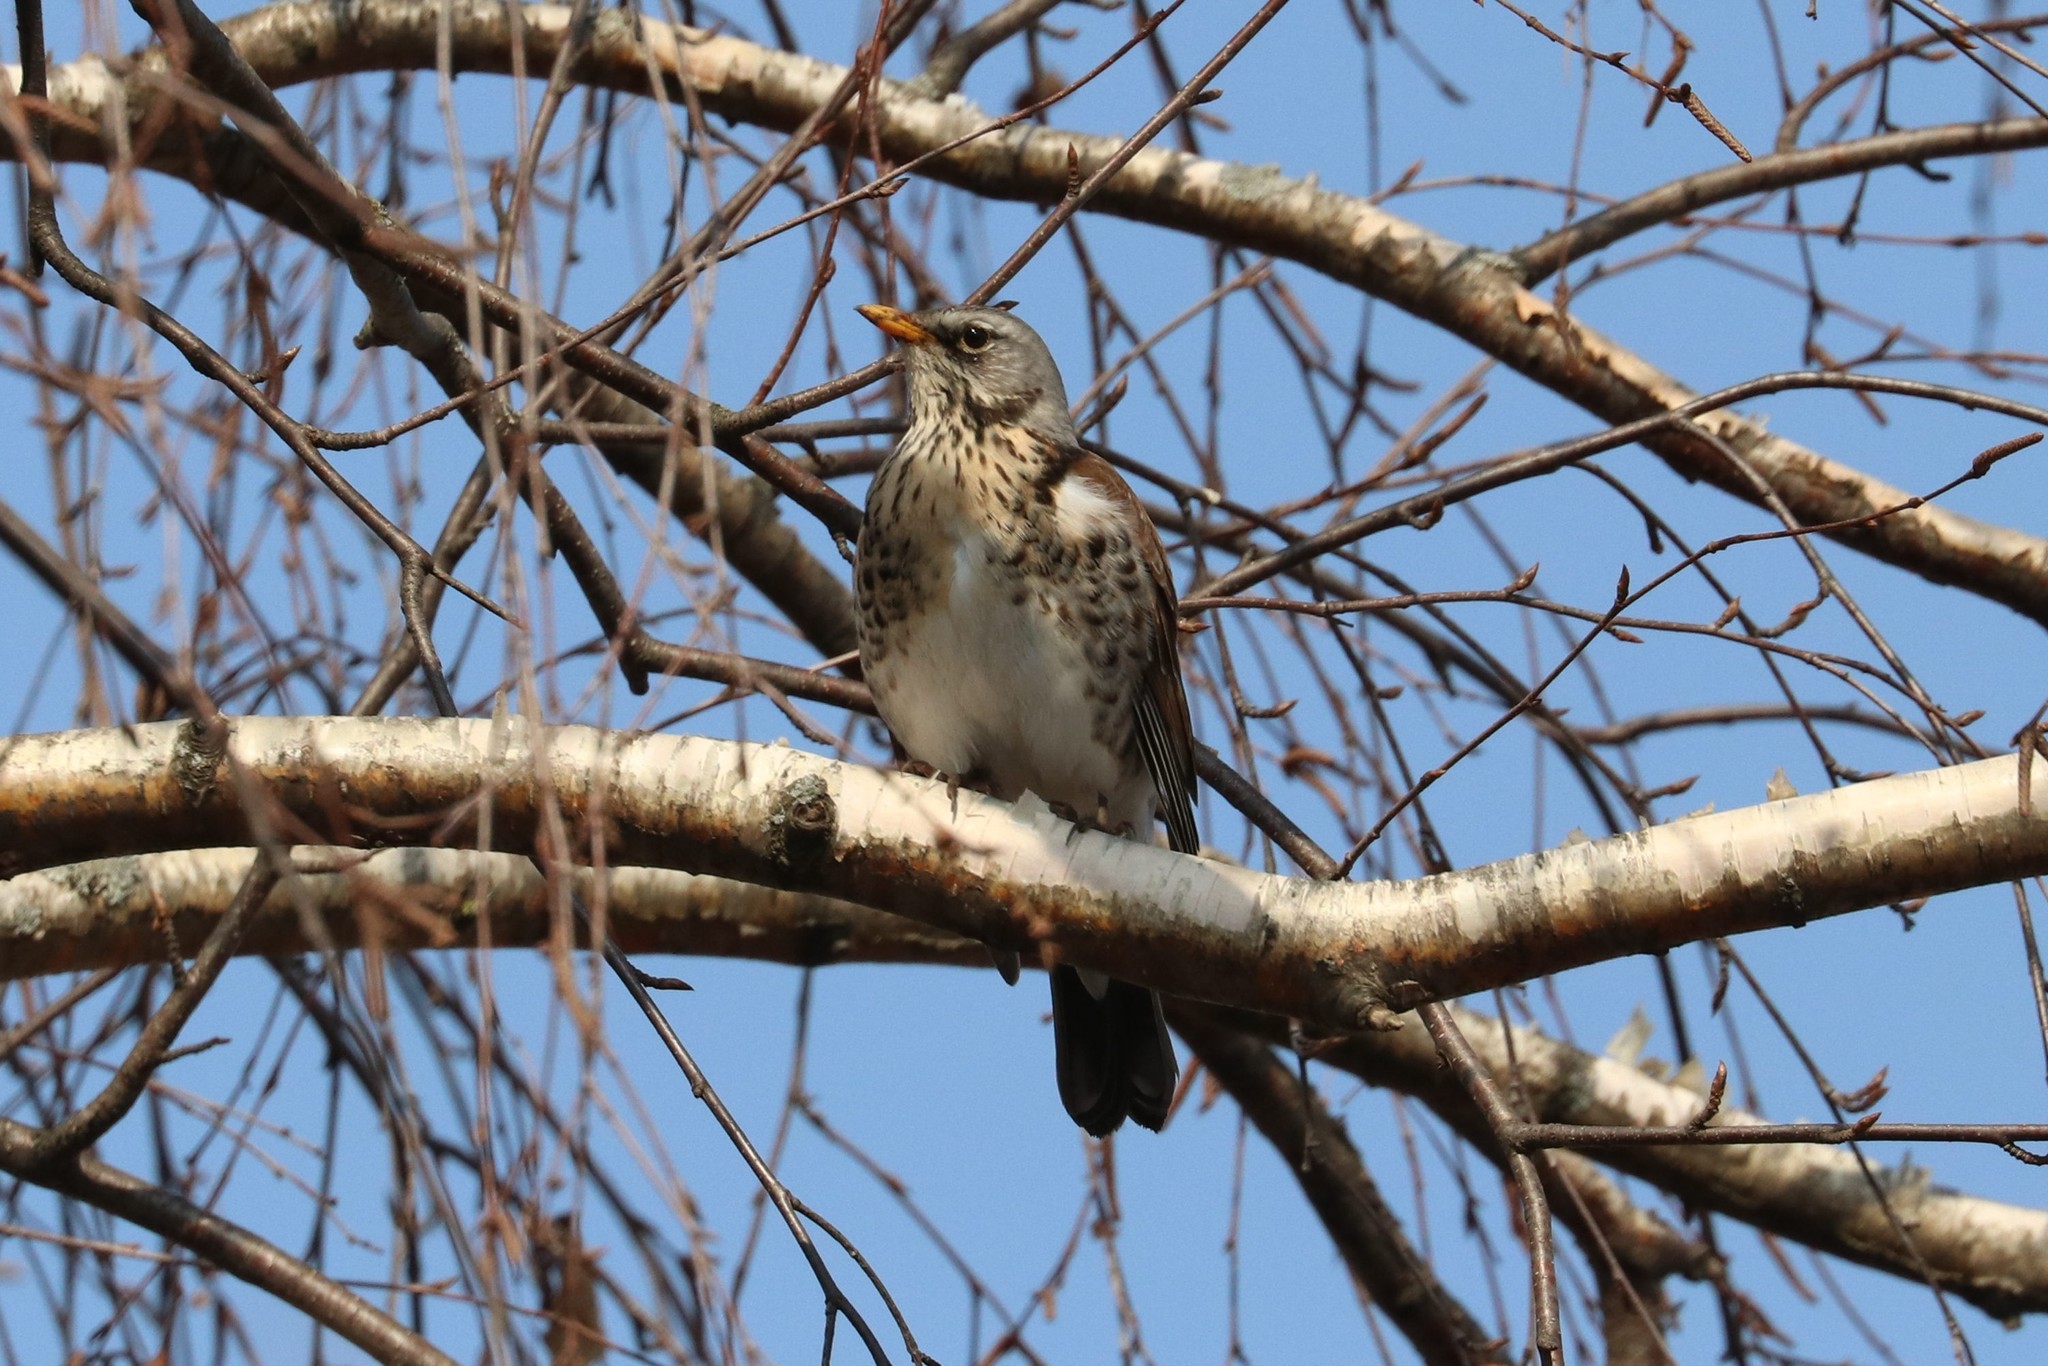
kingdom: Animalia
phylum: Chordata
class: Aves
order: Passeriformes
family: Turdidae
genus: Turdus
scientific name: Turdus pilaris
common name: Fieldfare
